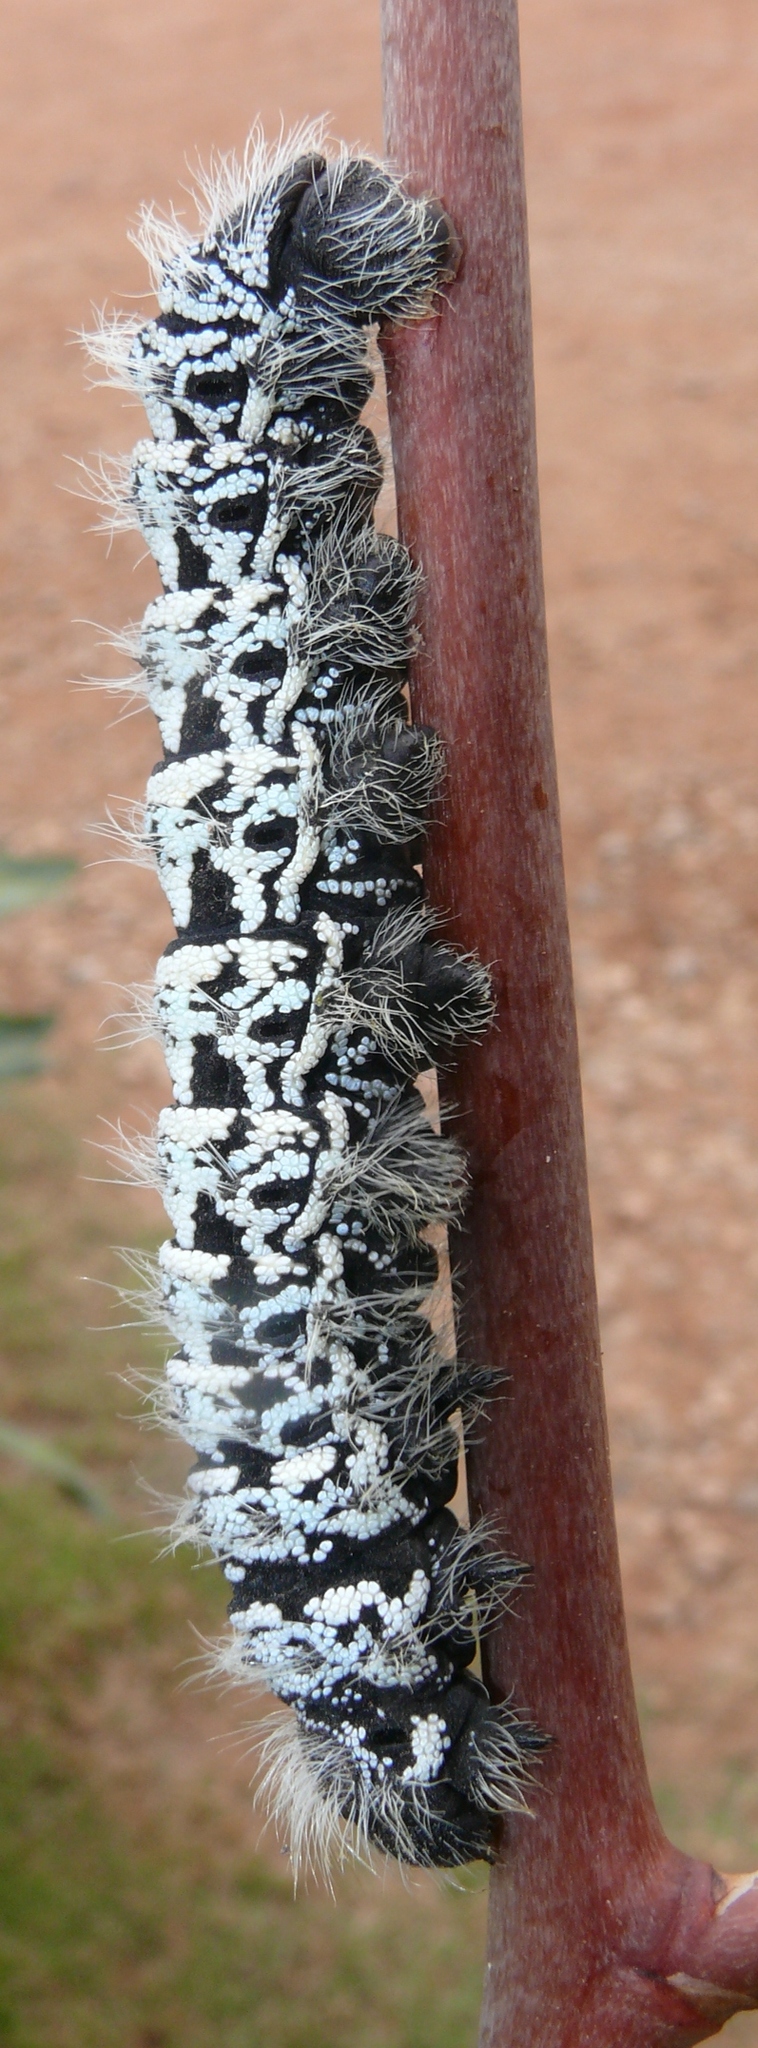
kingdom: Animalia
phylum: Arthropoda
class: Insecta
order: Lepidoptera
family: Saturniidae
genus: Gonimbrasia
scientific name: Gonimbrasia tyrrhea
